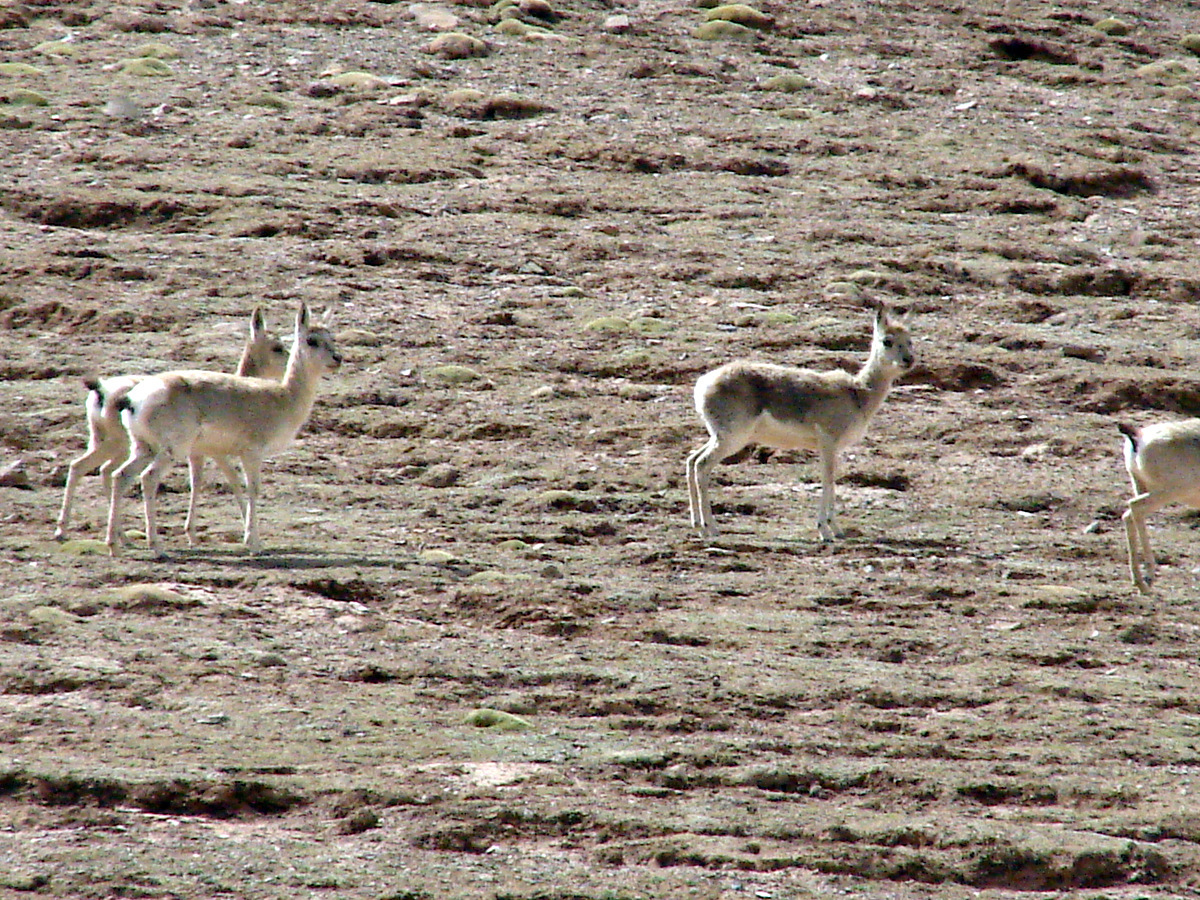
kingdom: Animalia
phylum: Chordata
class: Mammalia
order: Artiodactyla
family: Bovidae
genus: Procapra
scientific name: Procapra picticaudata
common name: Tibetan gazelle
